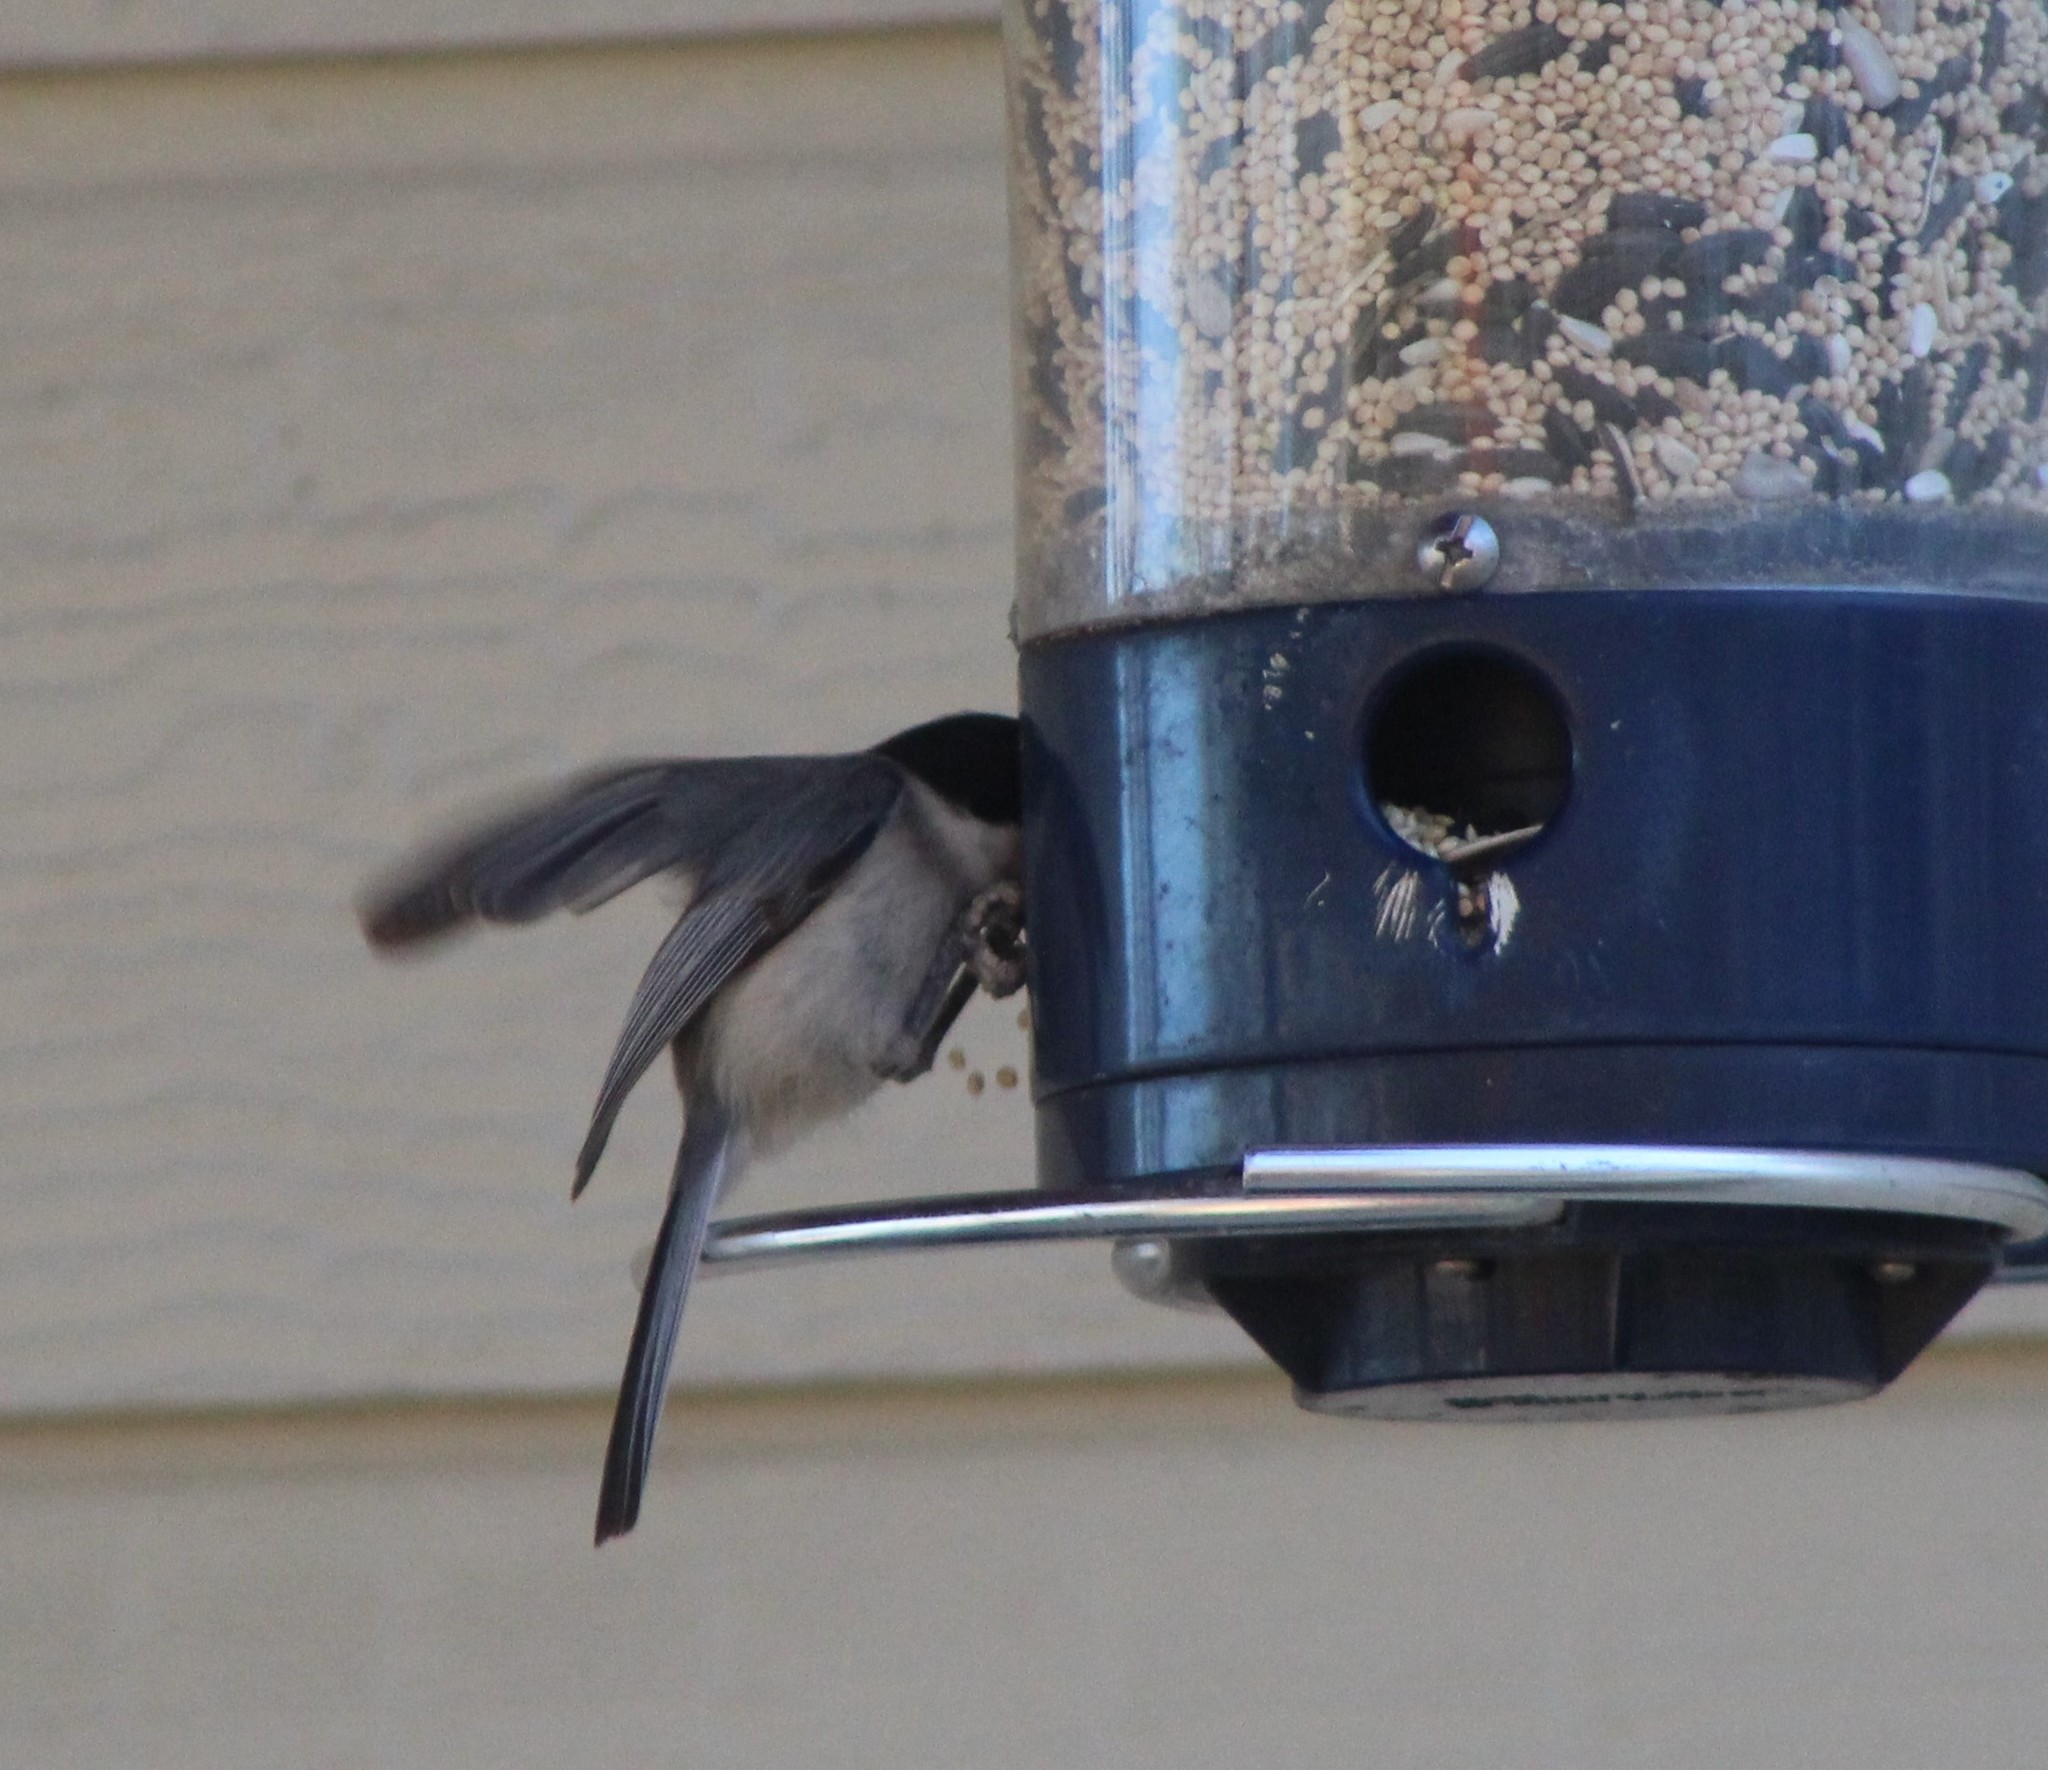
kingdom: Animalia
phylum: Chordata
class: Aves
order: Passeriformes
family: Paridae
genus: Poecile
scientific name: Poecile carolinensis
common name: Carolina chickadee
